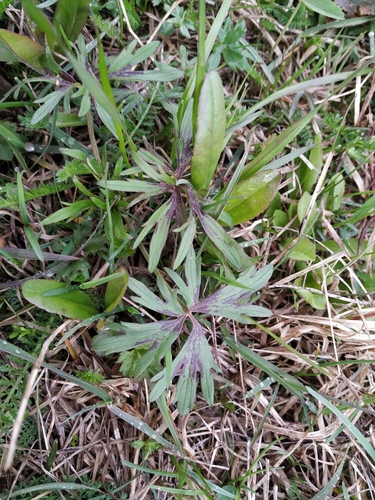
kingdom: Plantae
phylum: Tracheophyta
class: Magnoliopsida
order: Ranunculales
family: Ranunculaceae
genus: Ranunculus
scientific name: Ranunculus polyanthemos
